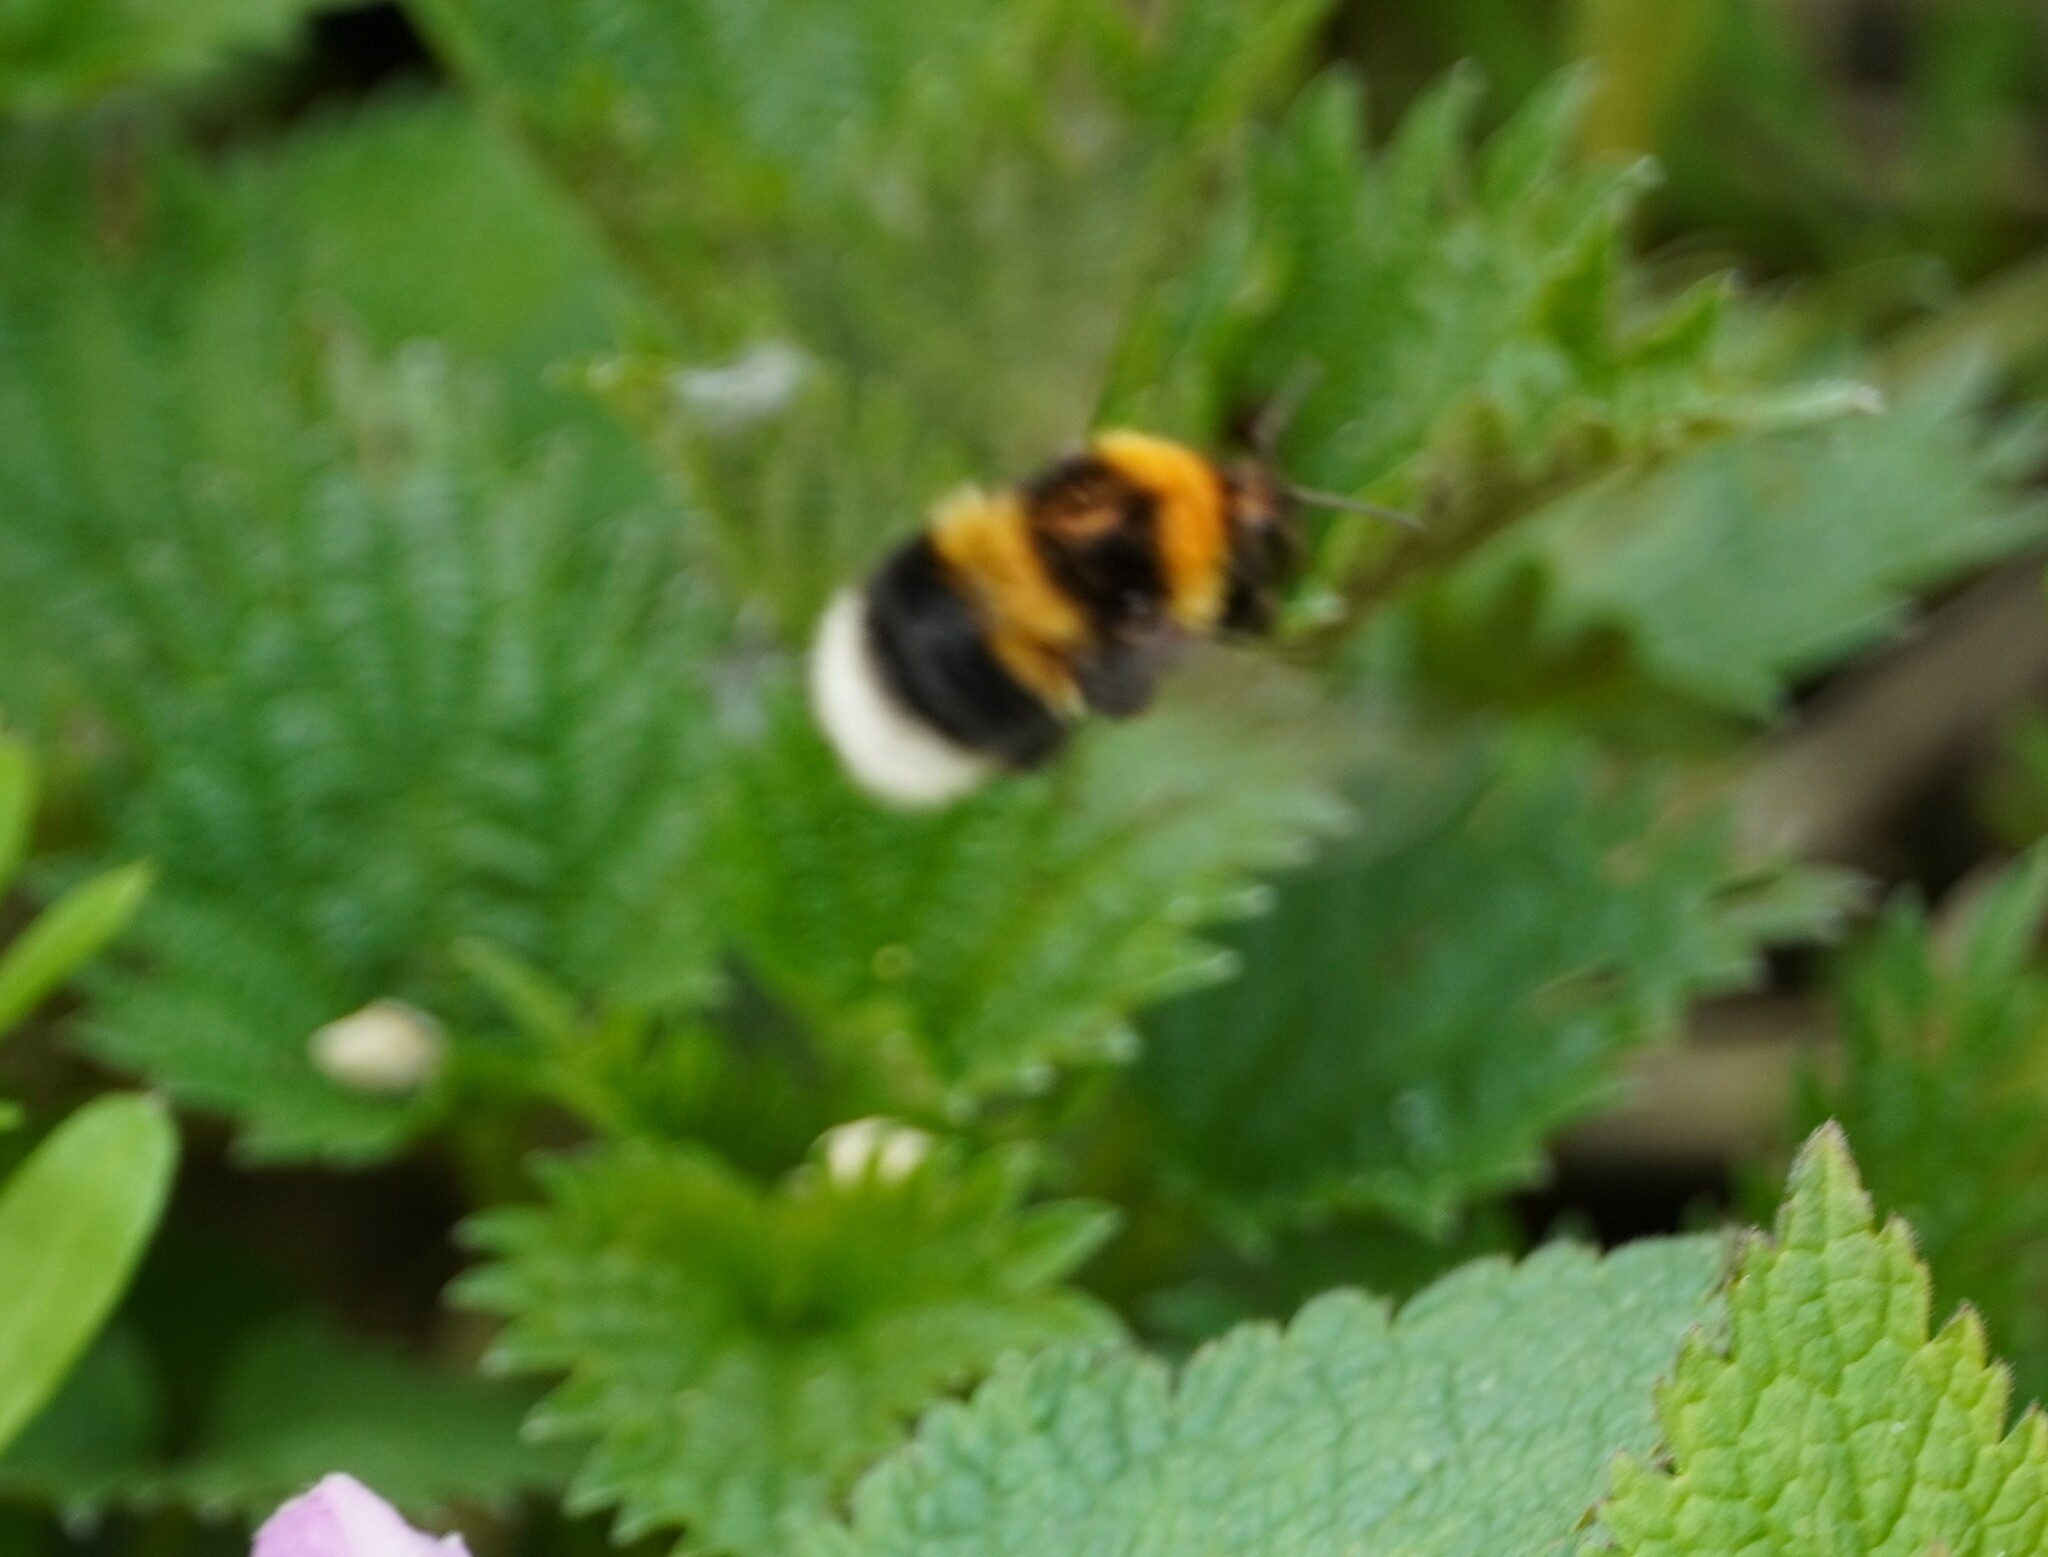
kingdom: Animalia
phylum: Arthropoda
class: Insecta
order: Hymenoptera
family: Apidae
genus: Bombus
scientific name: Bombus hortorum
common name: Garden bumblebee
